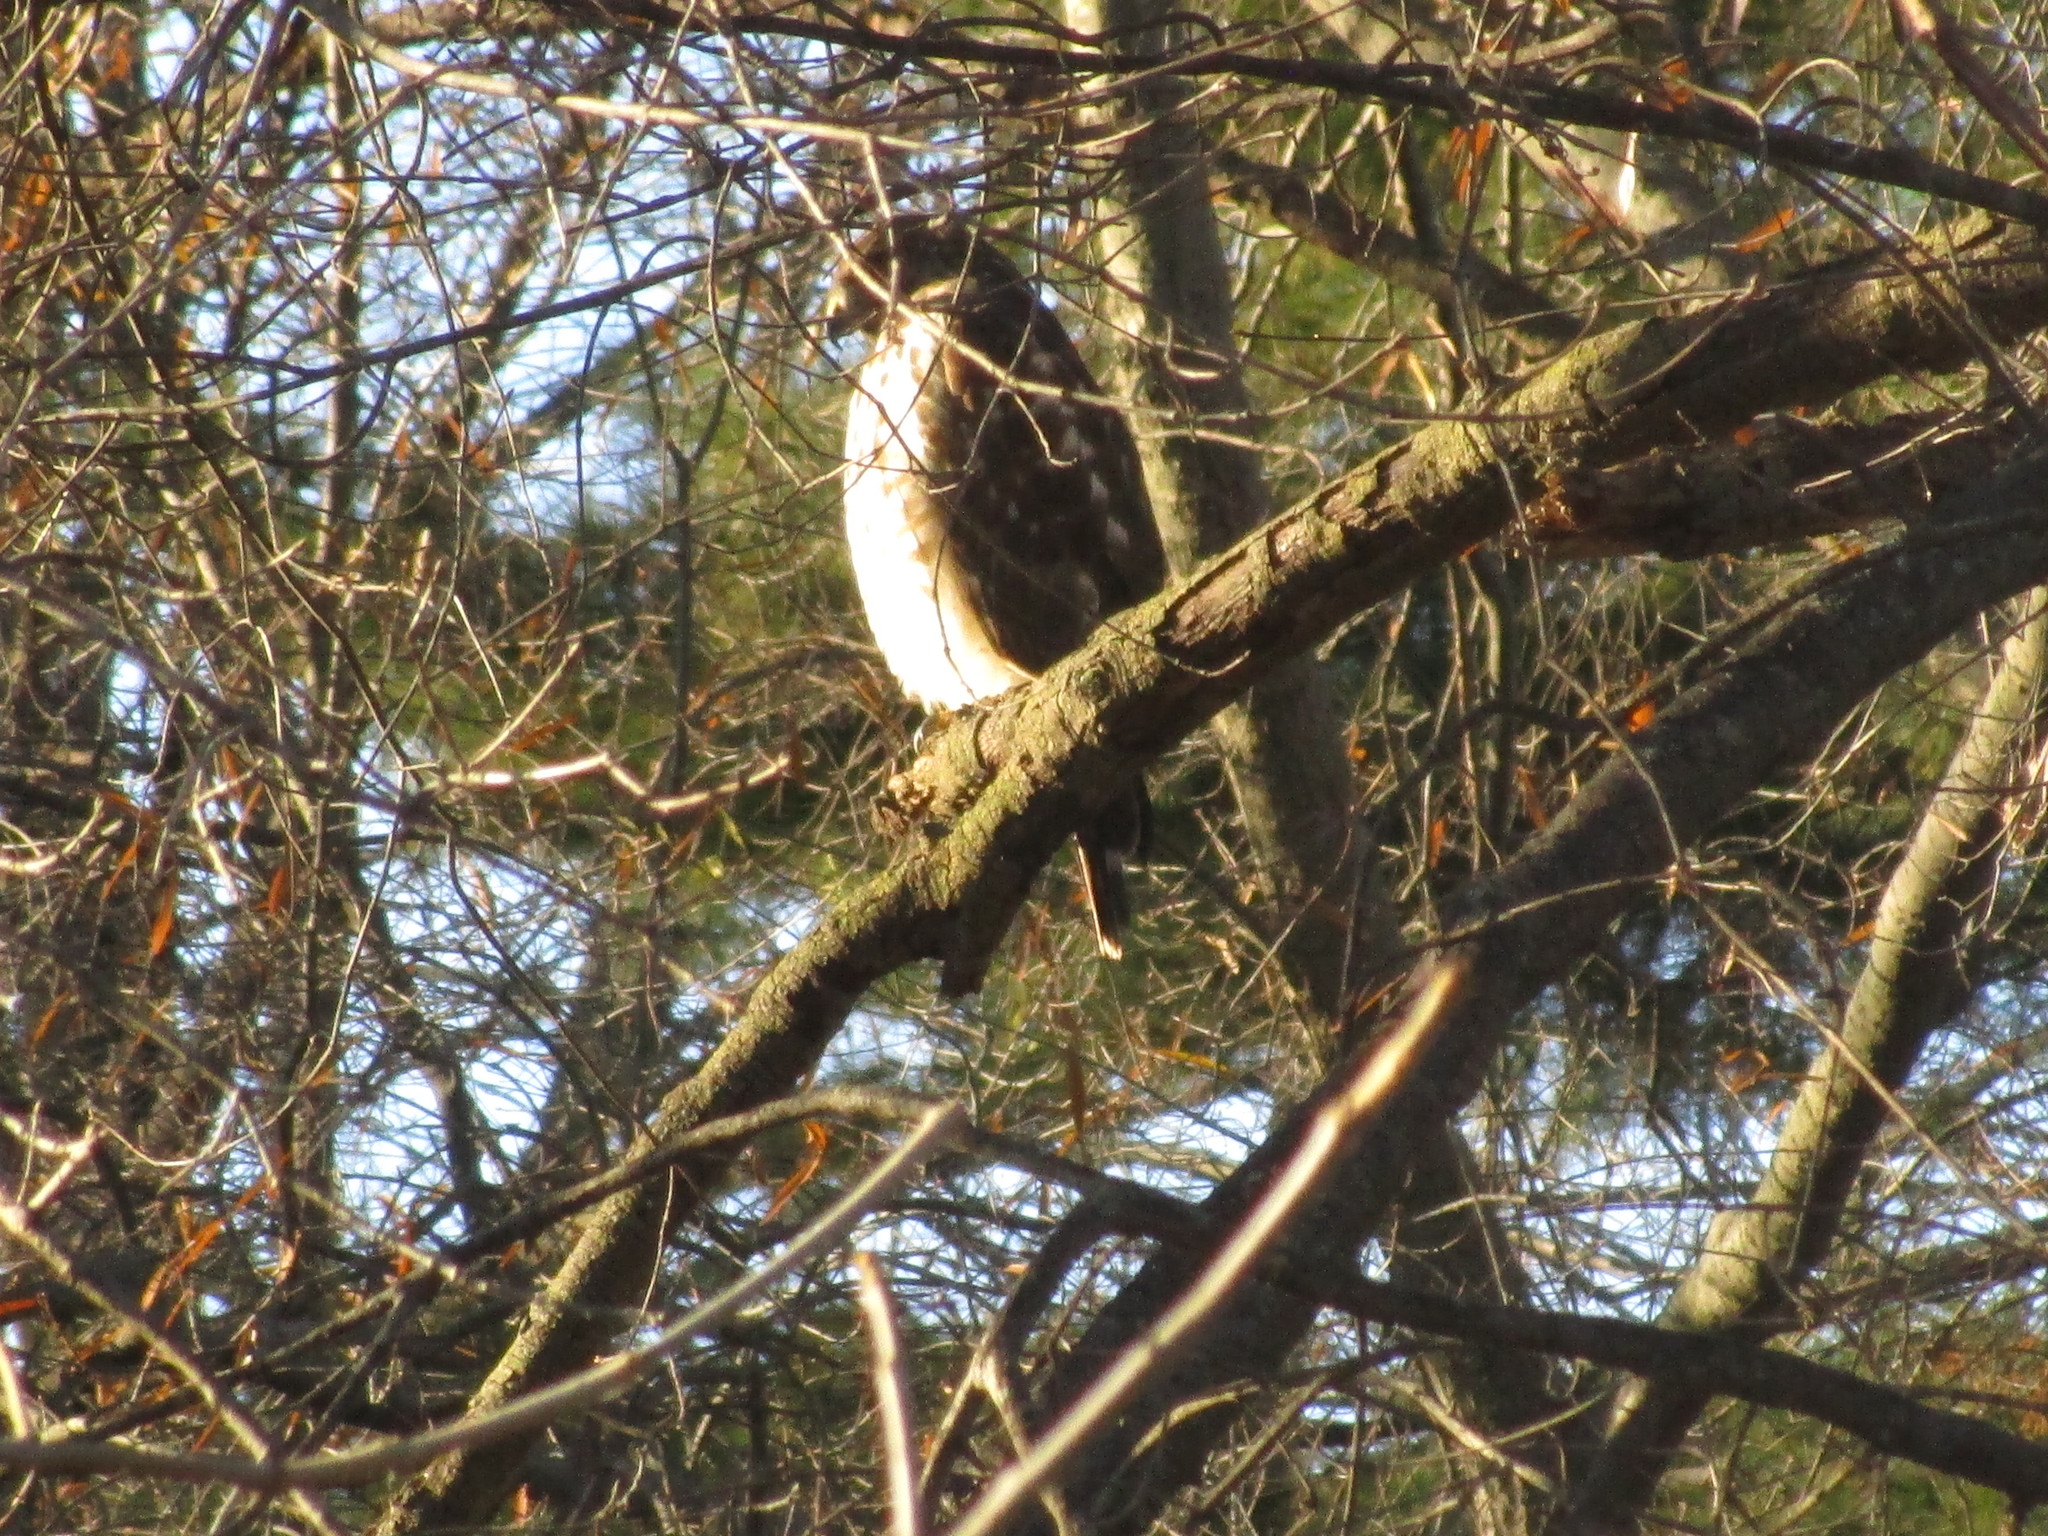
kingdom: Animalia
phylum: Chordata
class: Aves
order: Accipitriformes
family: Accipitridae
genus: Buteo
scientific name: Buteo lineatus
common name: Red-shouldered hawk
